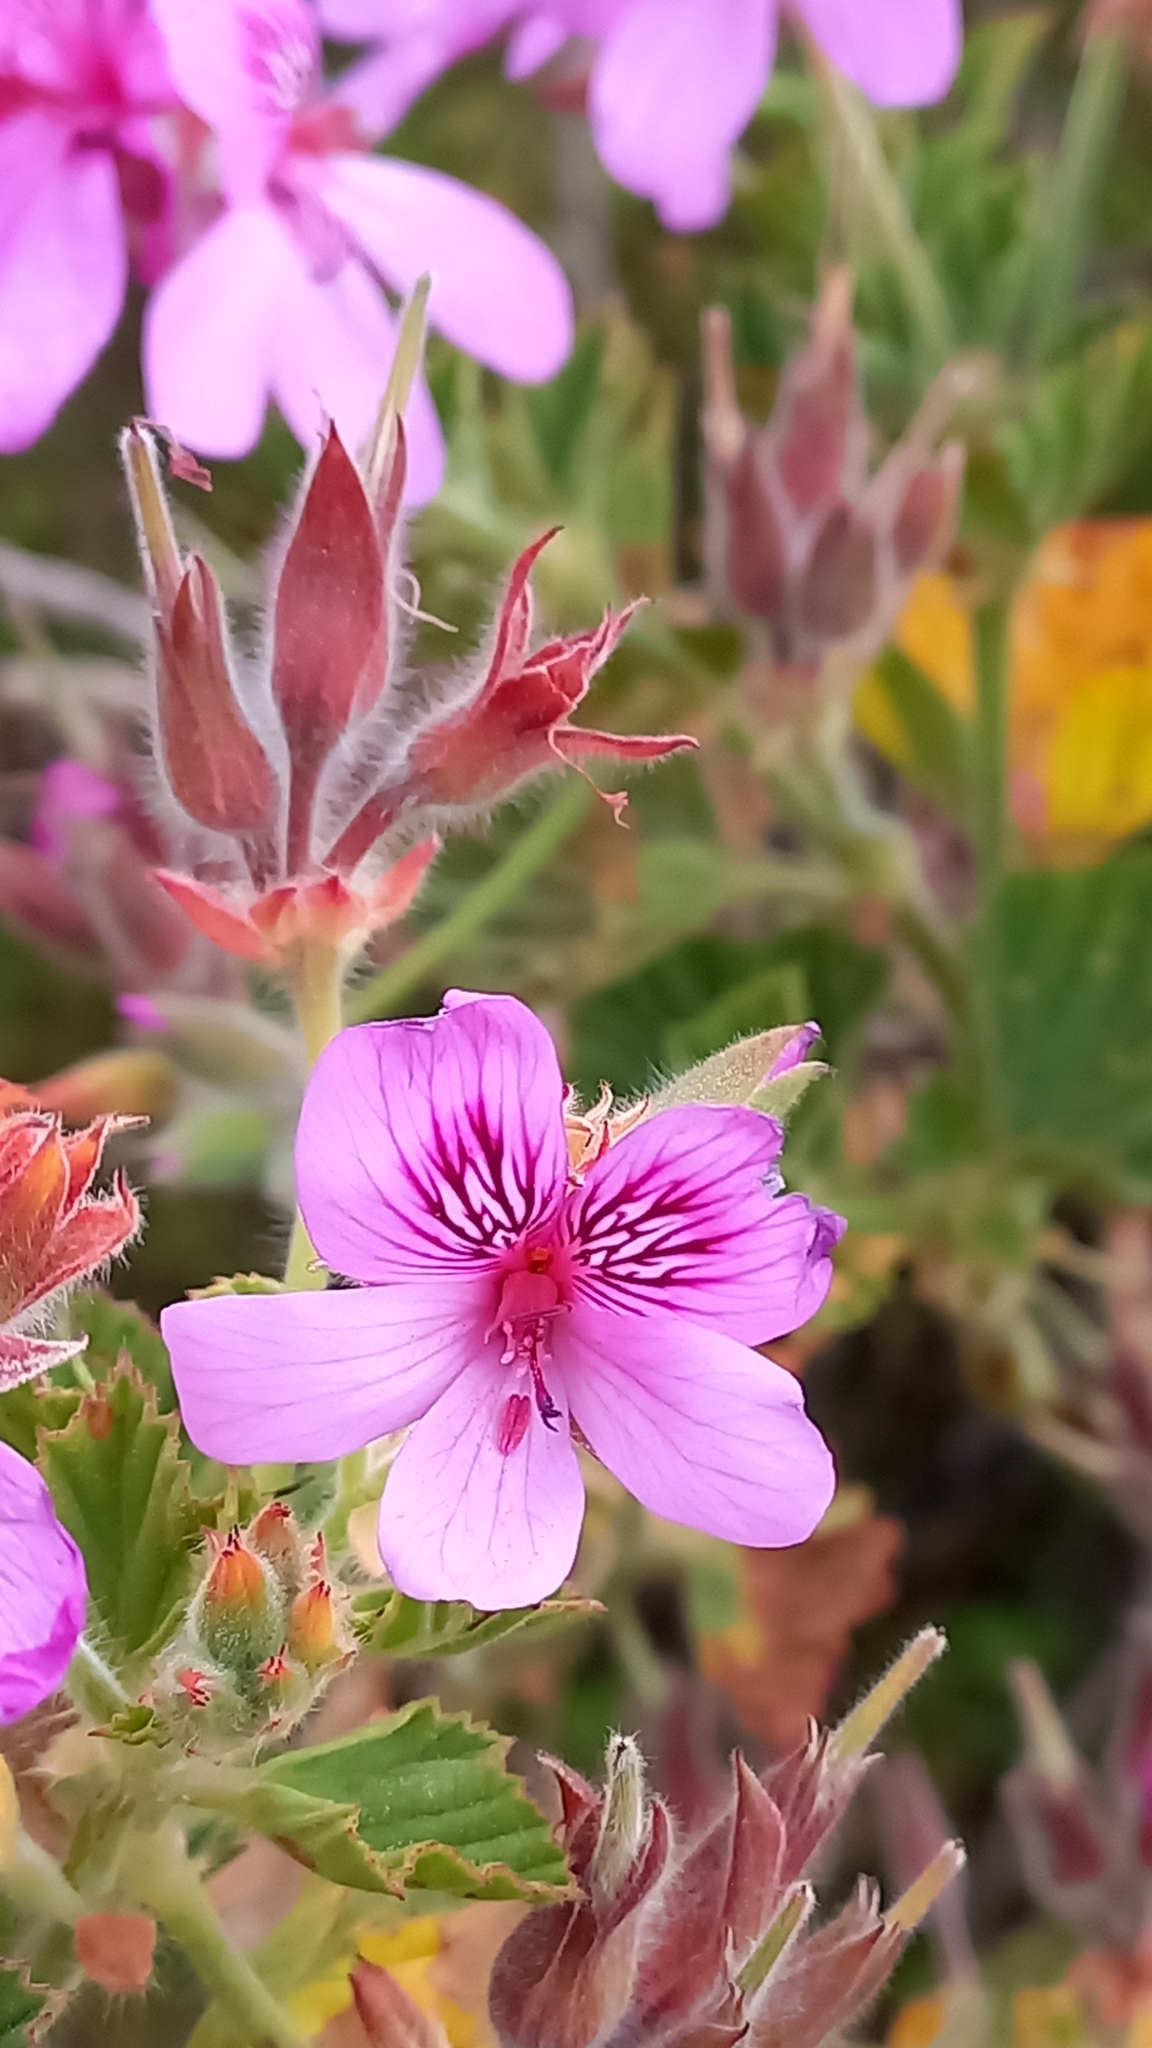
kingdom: Plantae
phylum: Tracheophyta
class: Magnoliopsida
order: Geraniales
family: Geraniaceae
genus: Pelargonium
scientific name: Pelargonium cucullatum
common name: Tree pelargonium
